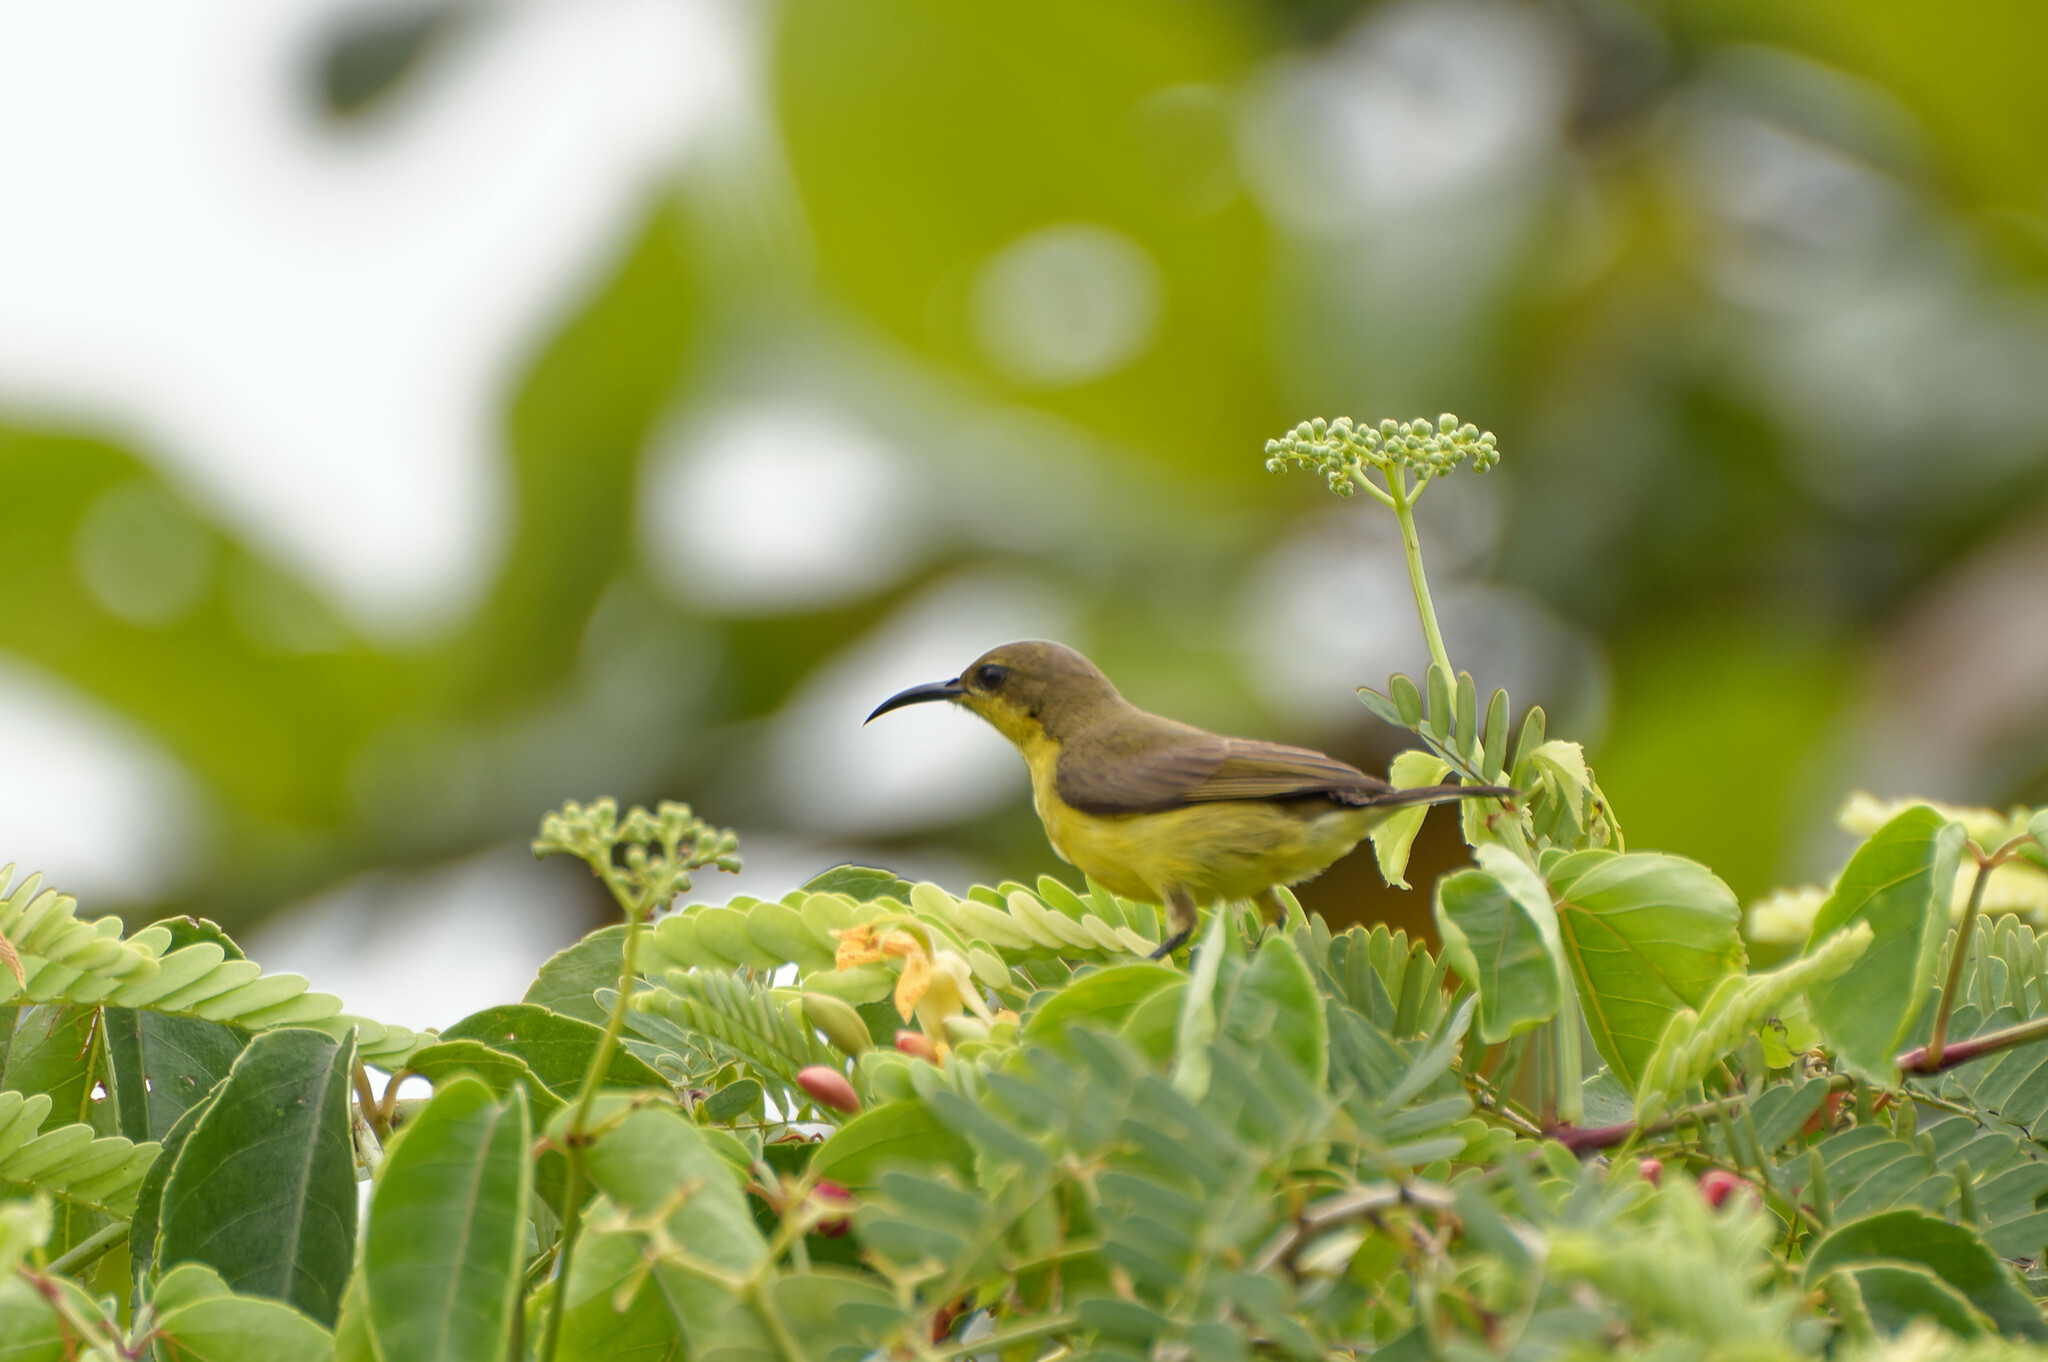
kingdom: Animalia
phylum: Chordata
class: Aves
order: Passeriformes
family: Nectariniidae
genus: Cinnyris
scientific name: Cinnyris
